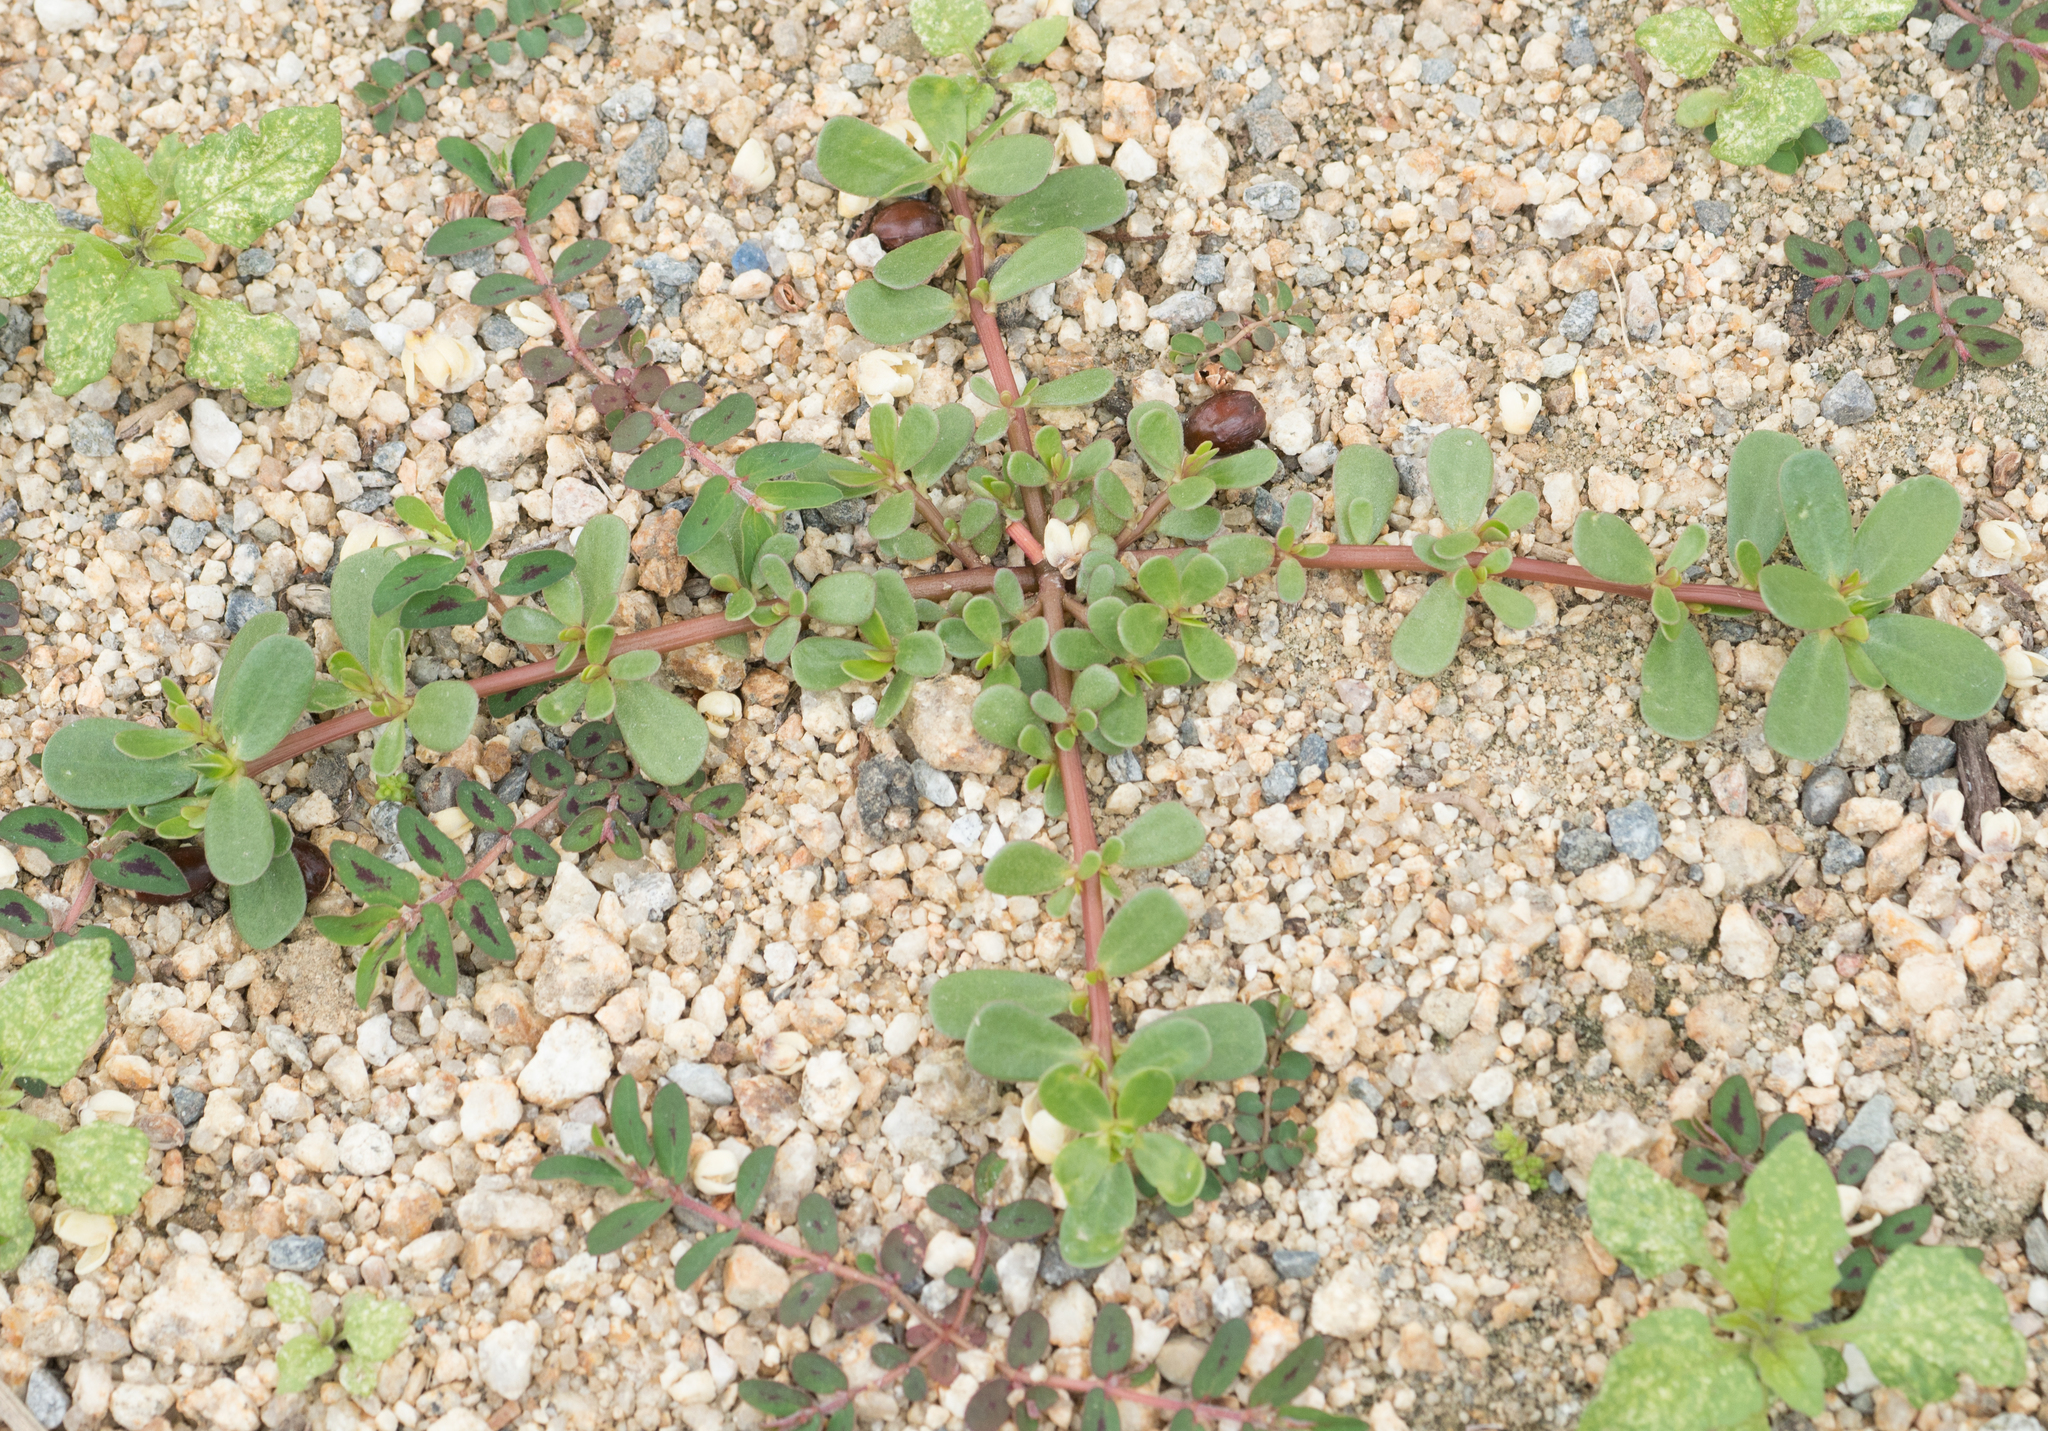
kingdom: Plantae
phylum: Tracheophyta
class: Magnoliopsida
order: Caryophyllales
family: Portulacaceae
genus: Portulaca
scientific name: Portulaca oleracea
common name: Common purslane
